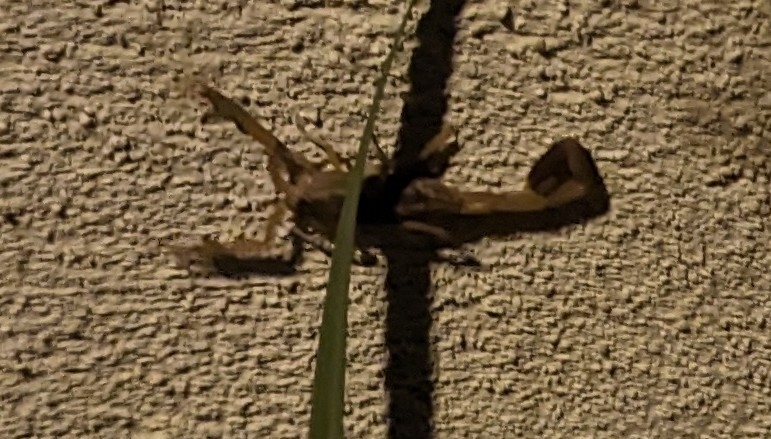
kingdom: Animalia
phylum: Arthropoda
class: Arachnida
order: Scorpiones
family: Buthidae
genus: Centruroides
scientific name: Centruroides vittatus
